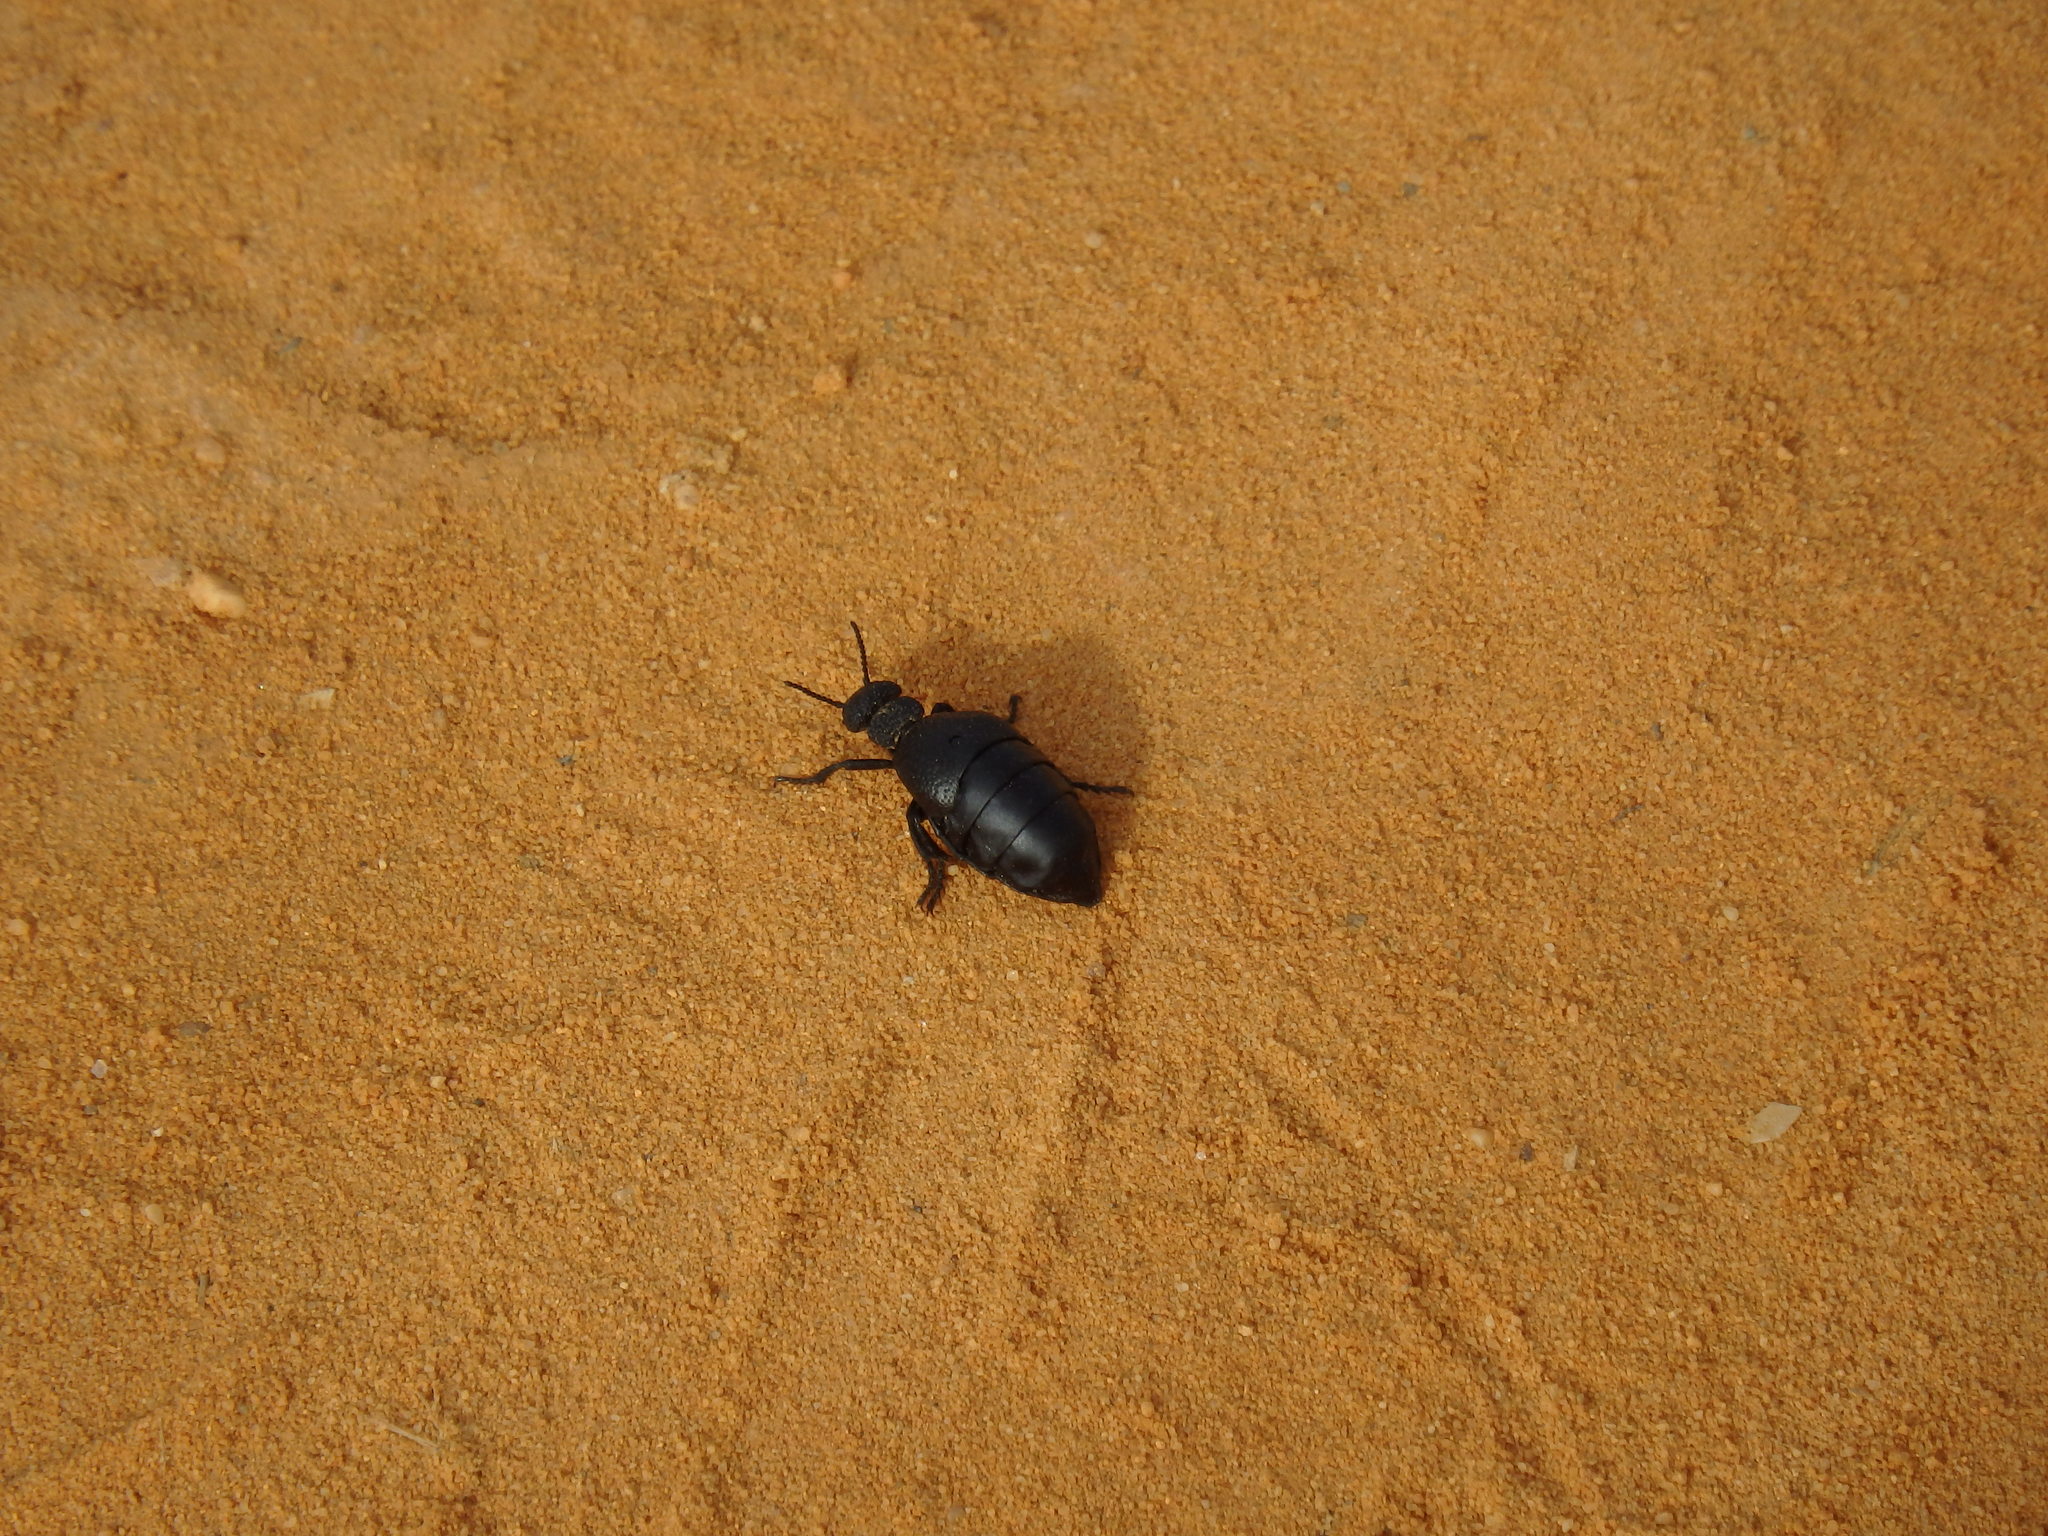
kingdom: Animalia
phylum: Arthropoda
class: Insecta
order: Coleoptera
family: Meloidae
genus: Meloe
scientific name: Meloe tuccius
